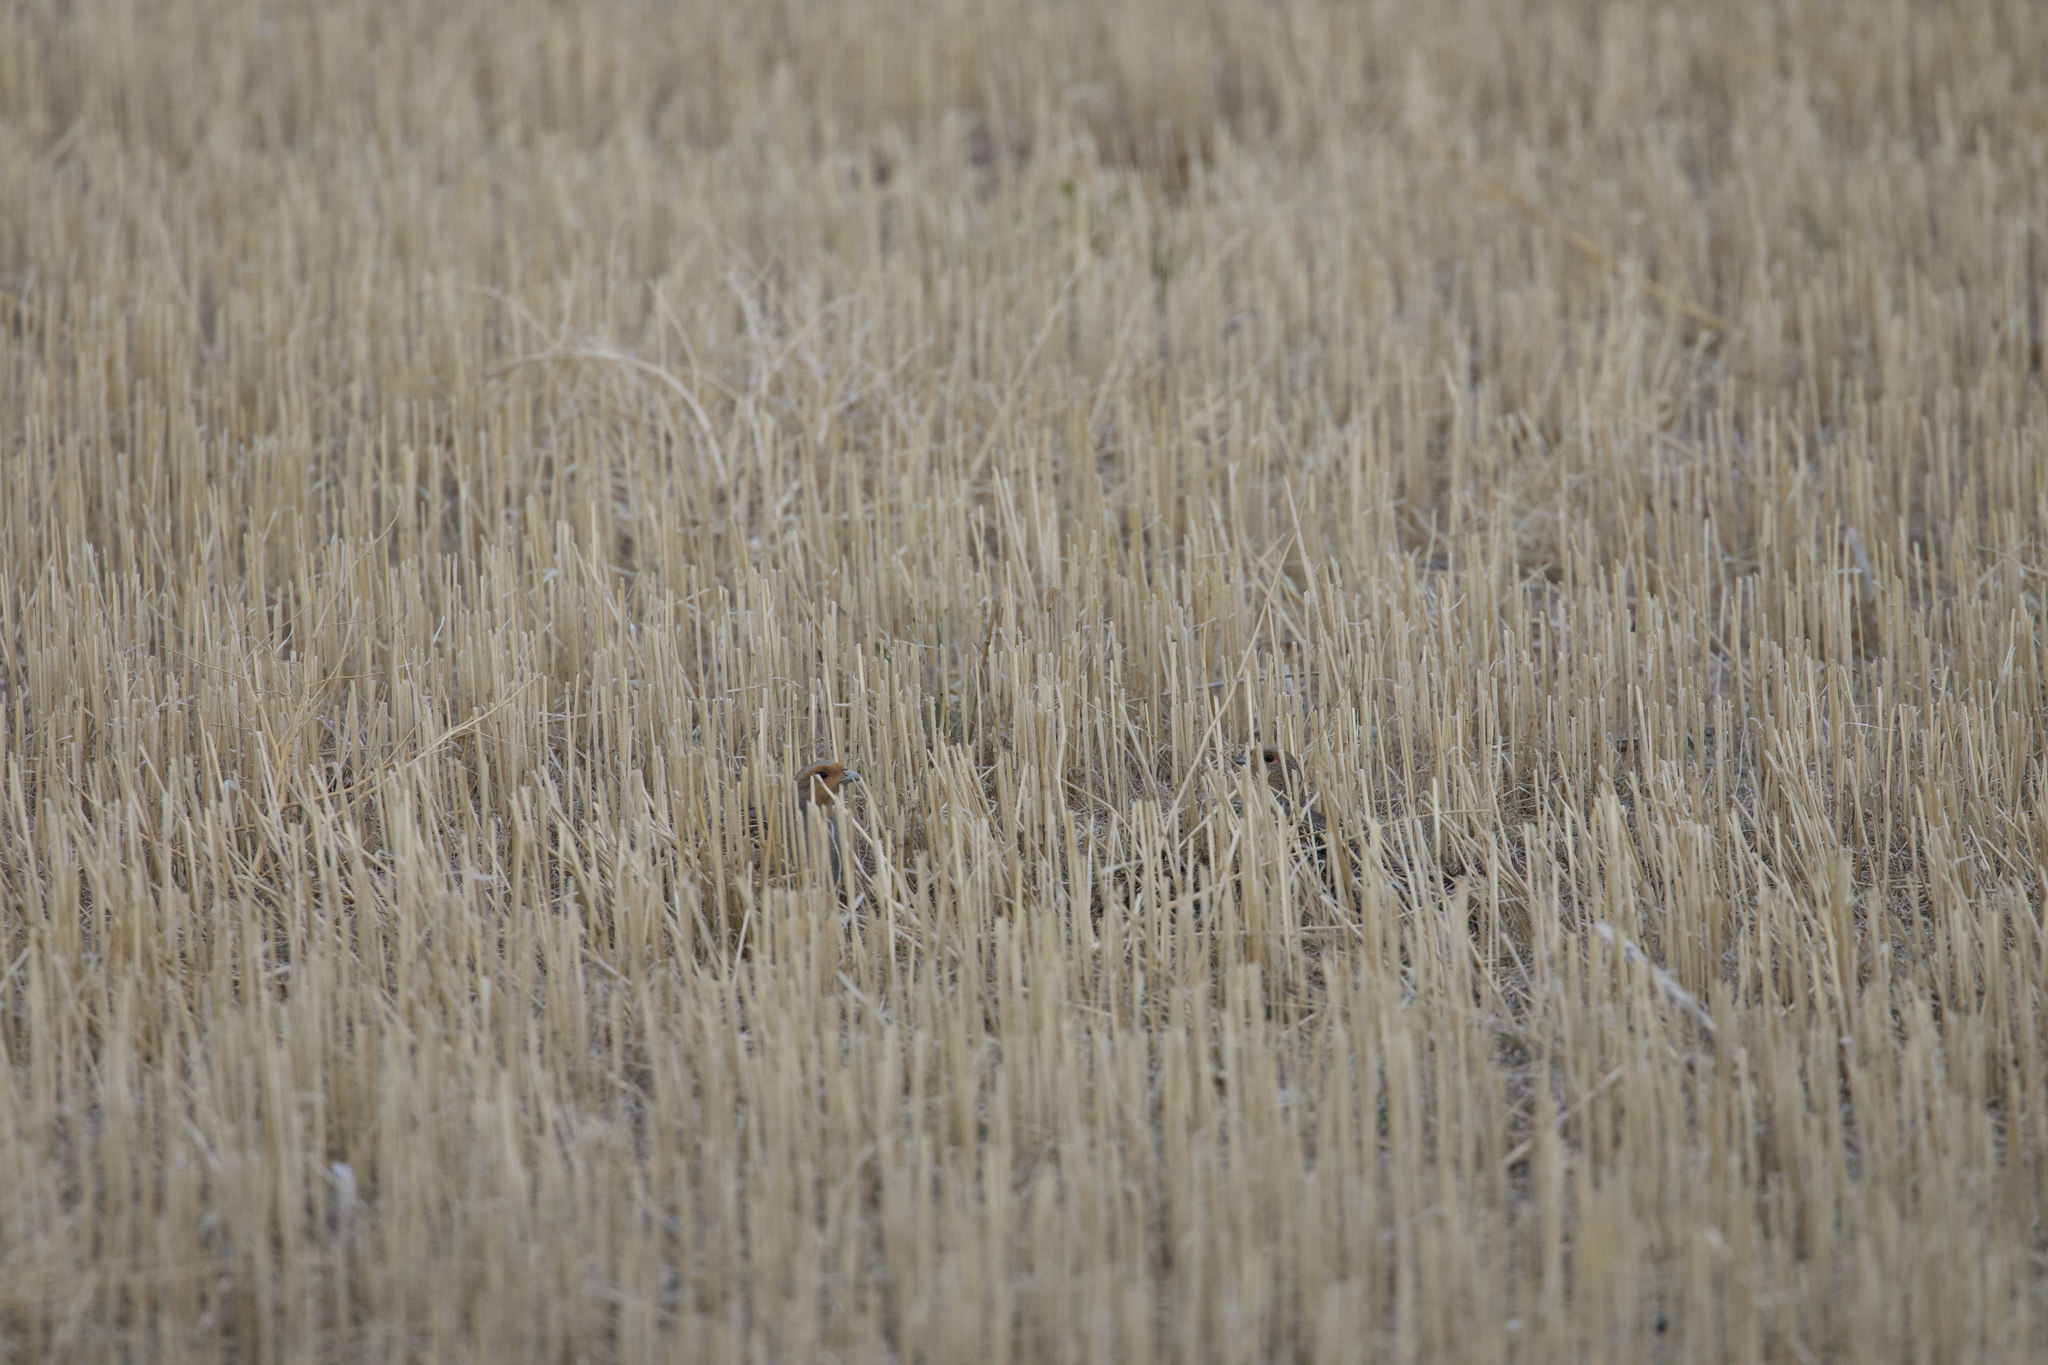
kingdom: Animalia
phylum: Chordata
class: Aves
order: Galliformes
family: Phasianidae
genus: Perdix
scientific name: Perdix perdix
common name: Grey partridge
